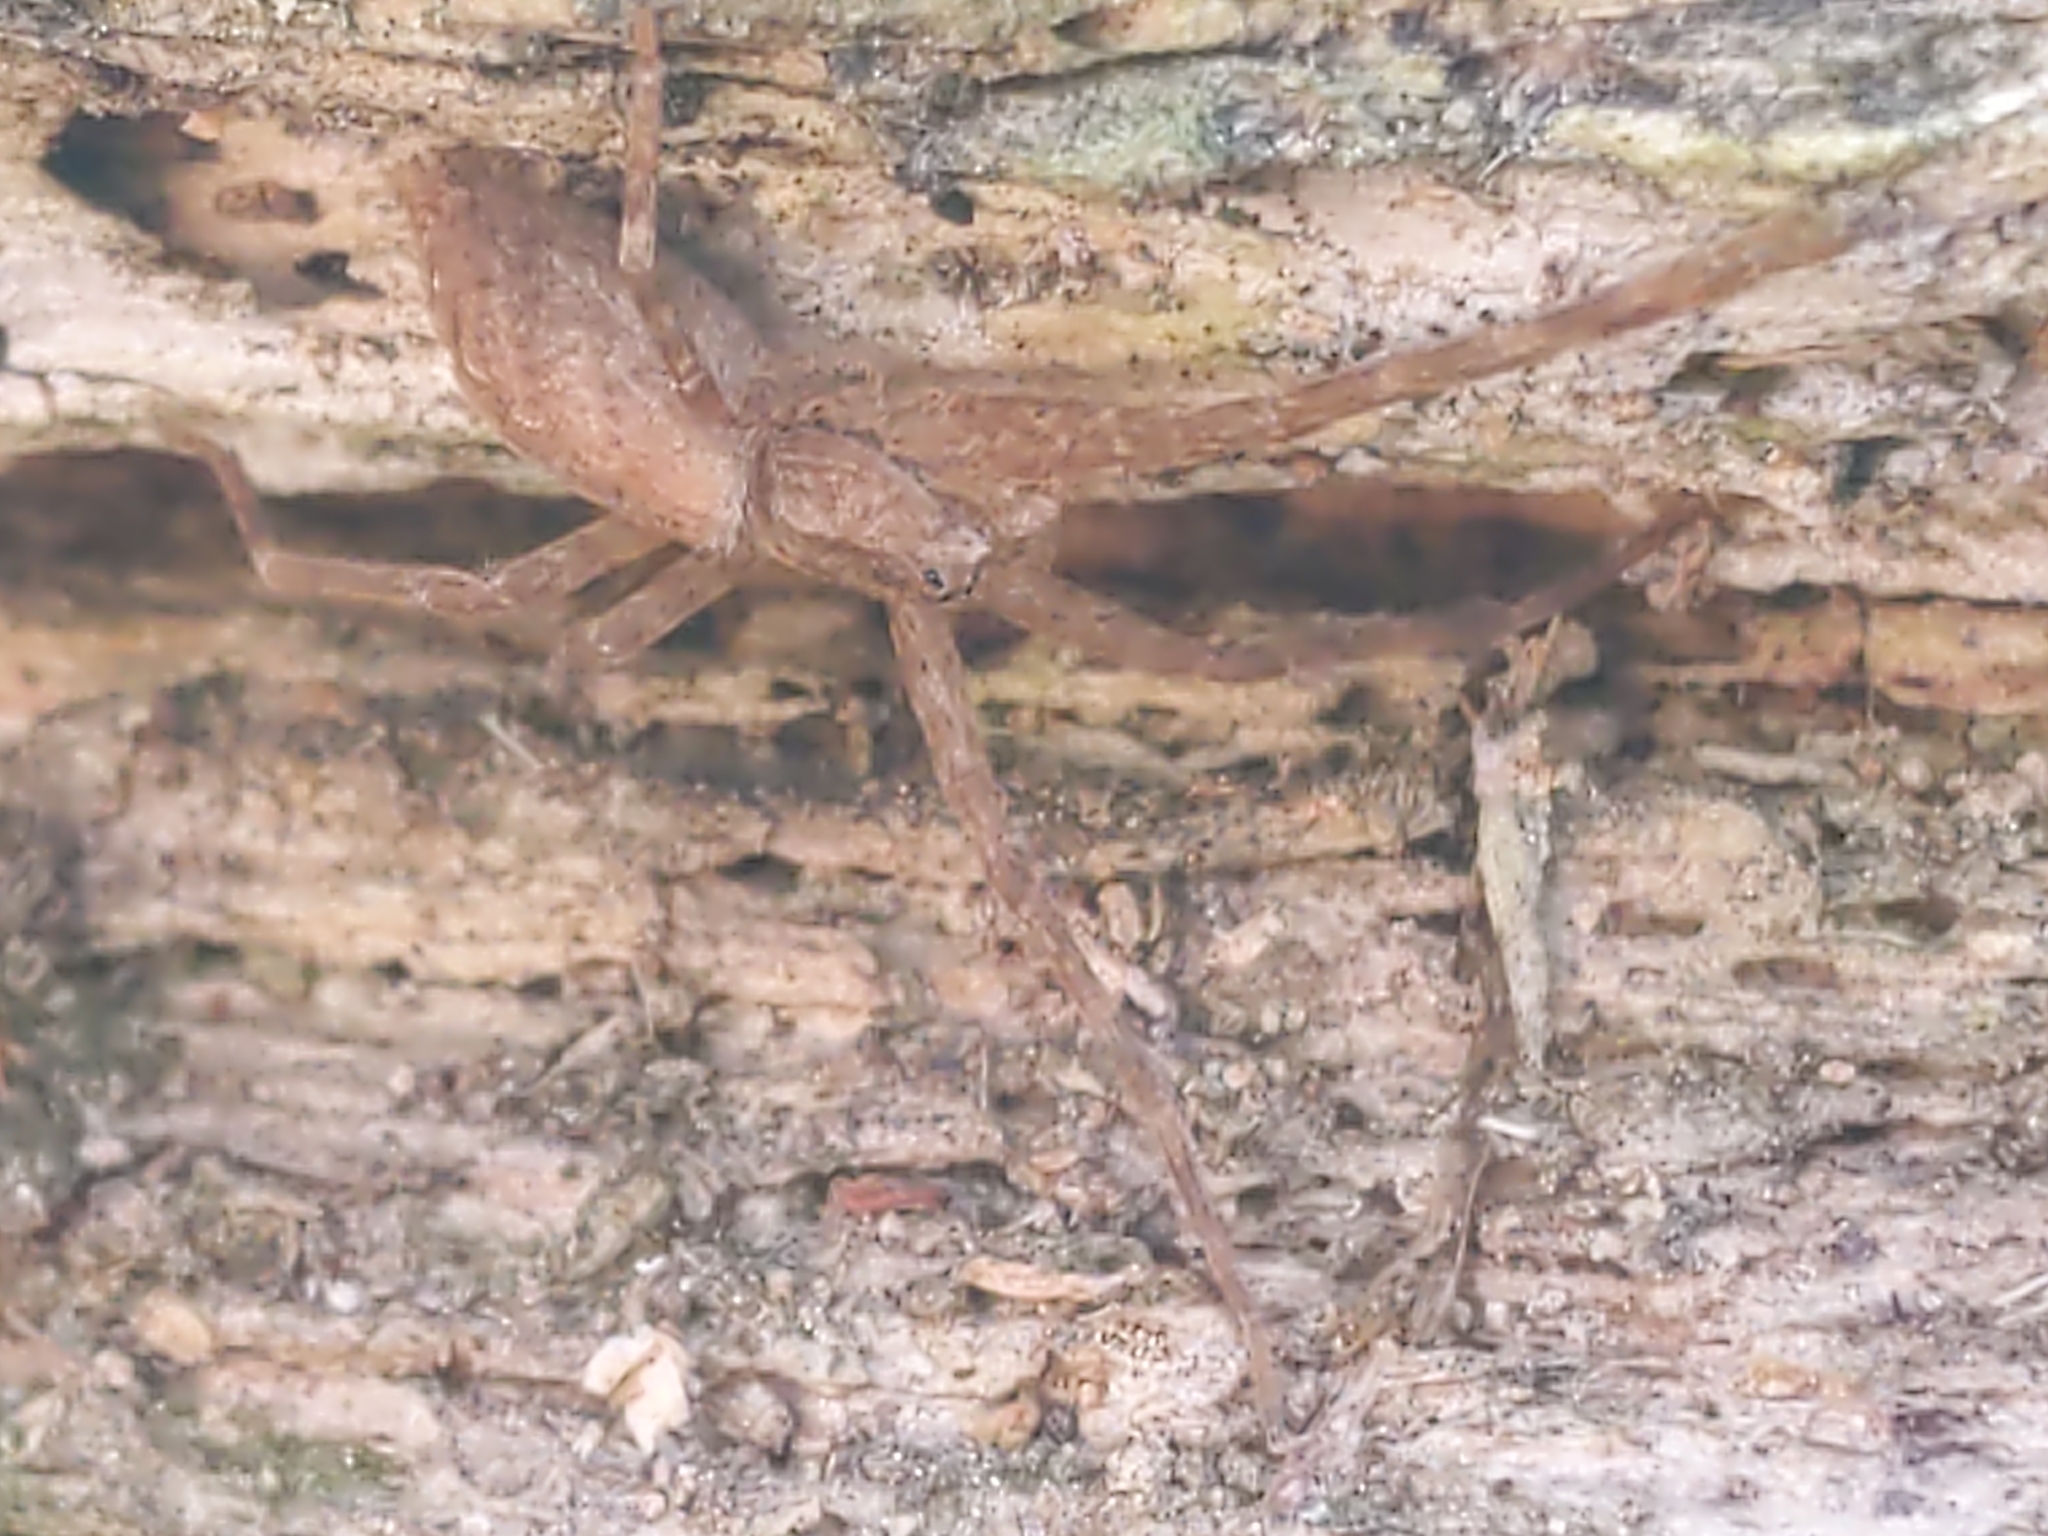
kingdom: Animalia
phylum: Arthropoda
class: Arachnida
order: Araneae
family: Pisauridae
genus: Pisaurina
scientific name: Pisaurina mira
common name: American nursery web spider
